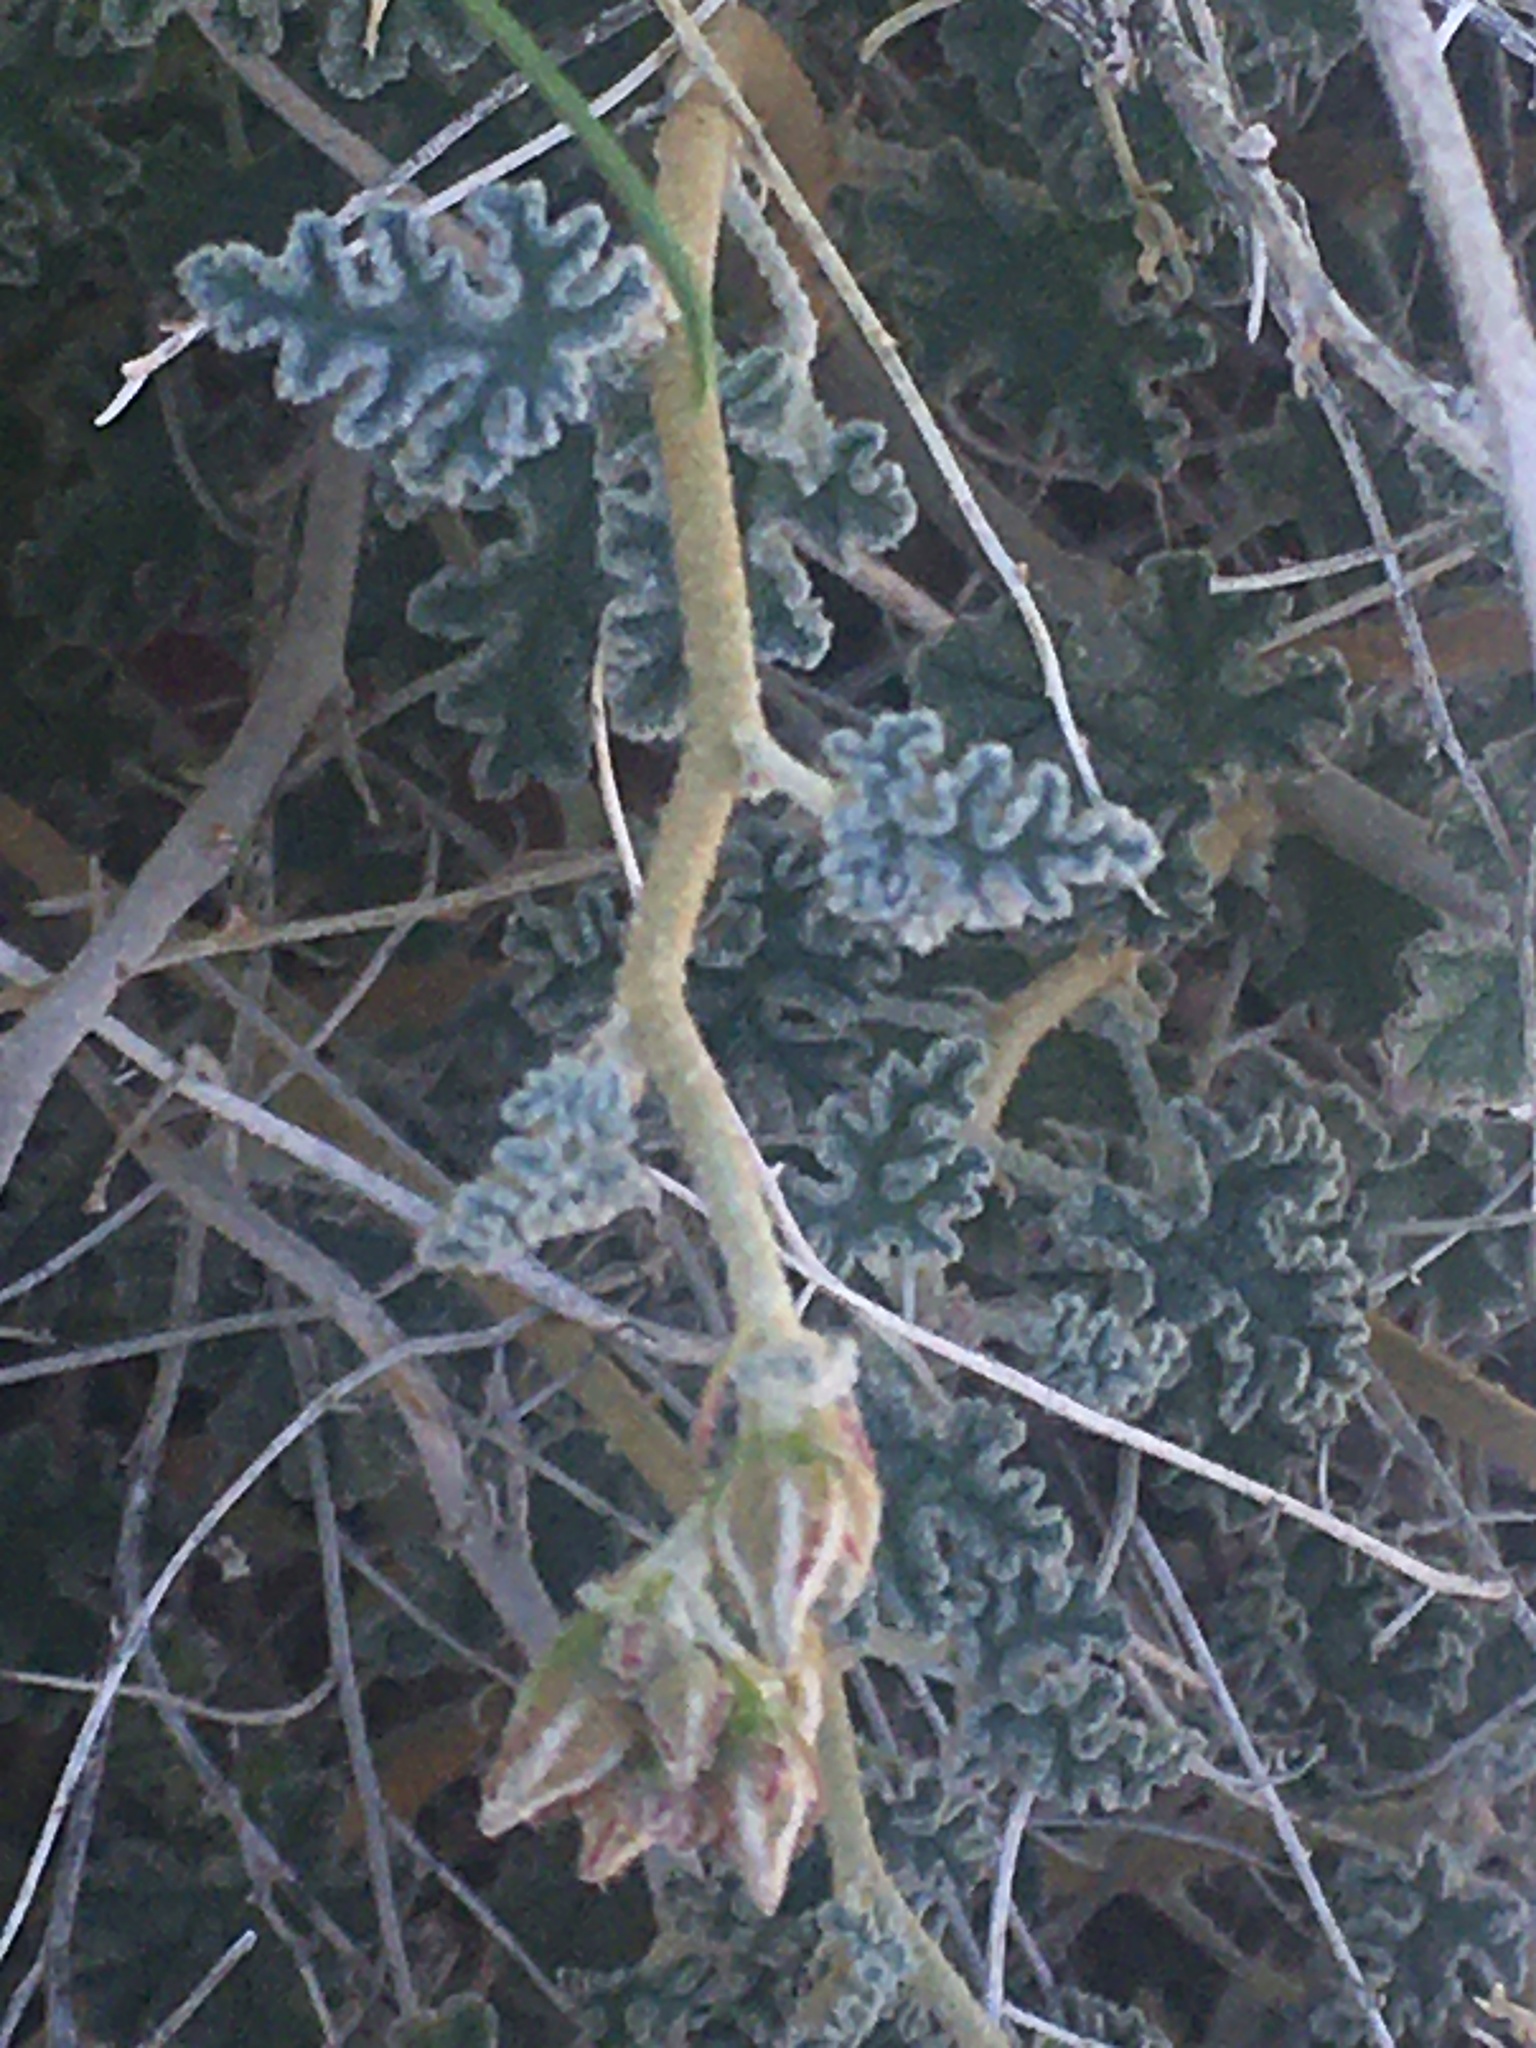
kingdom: Plantae
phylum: Tracheophyta
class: Magnoliopsida
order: Malvales
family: Malvaceae
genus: Sphaeralcea
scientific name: Sphaeralcea ambigua
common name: Apricot globe-mallow
